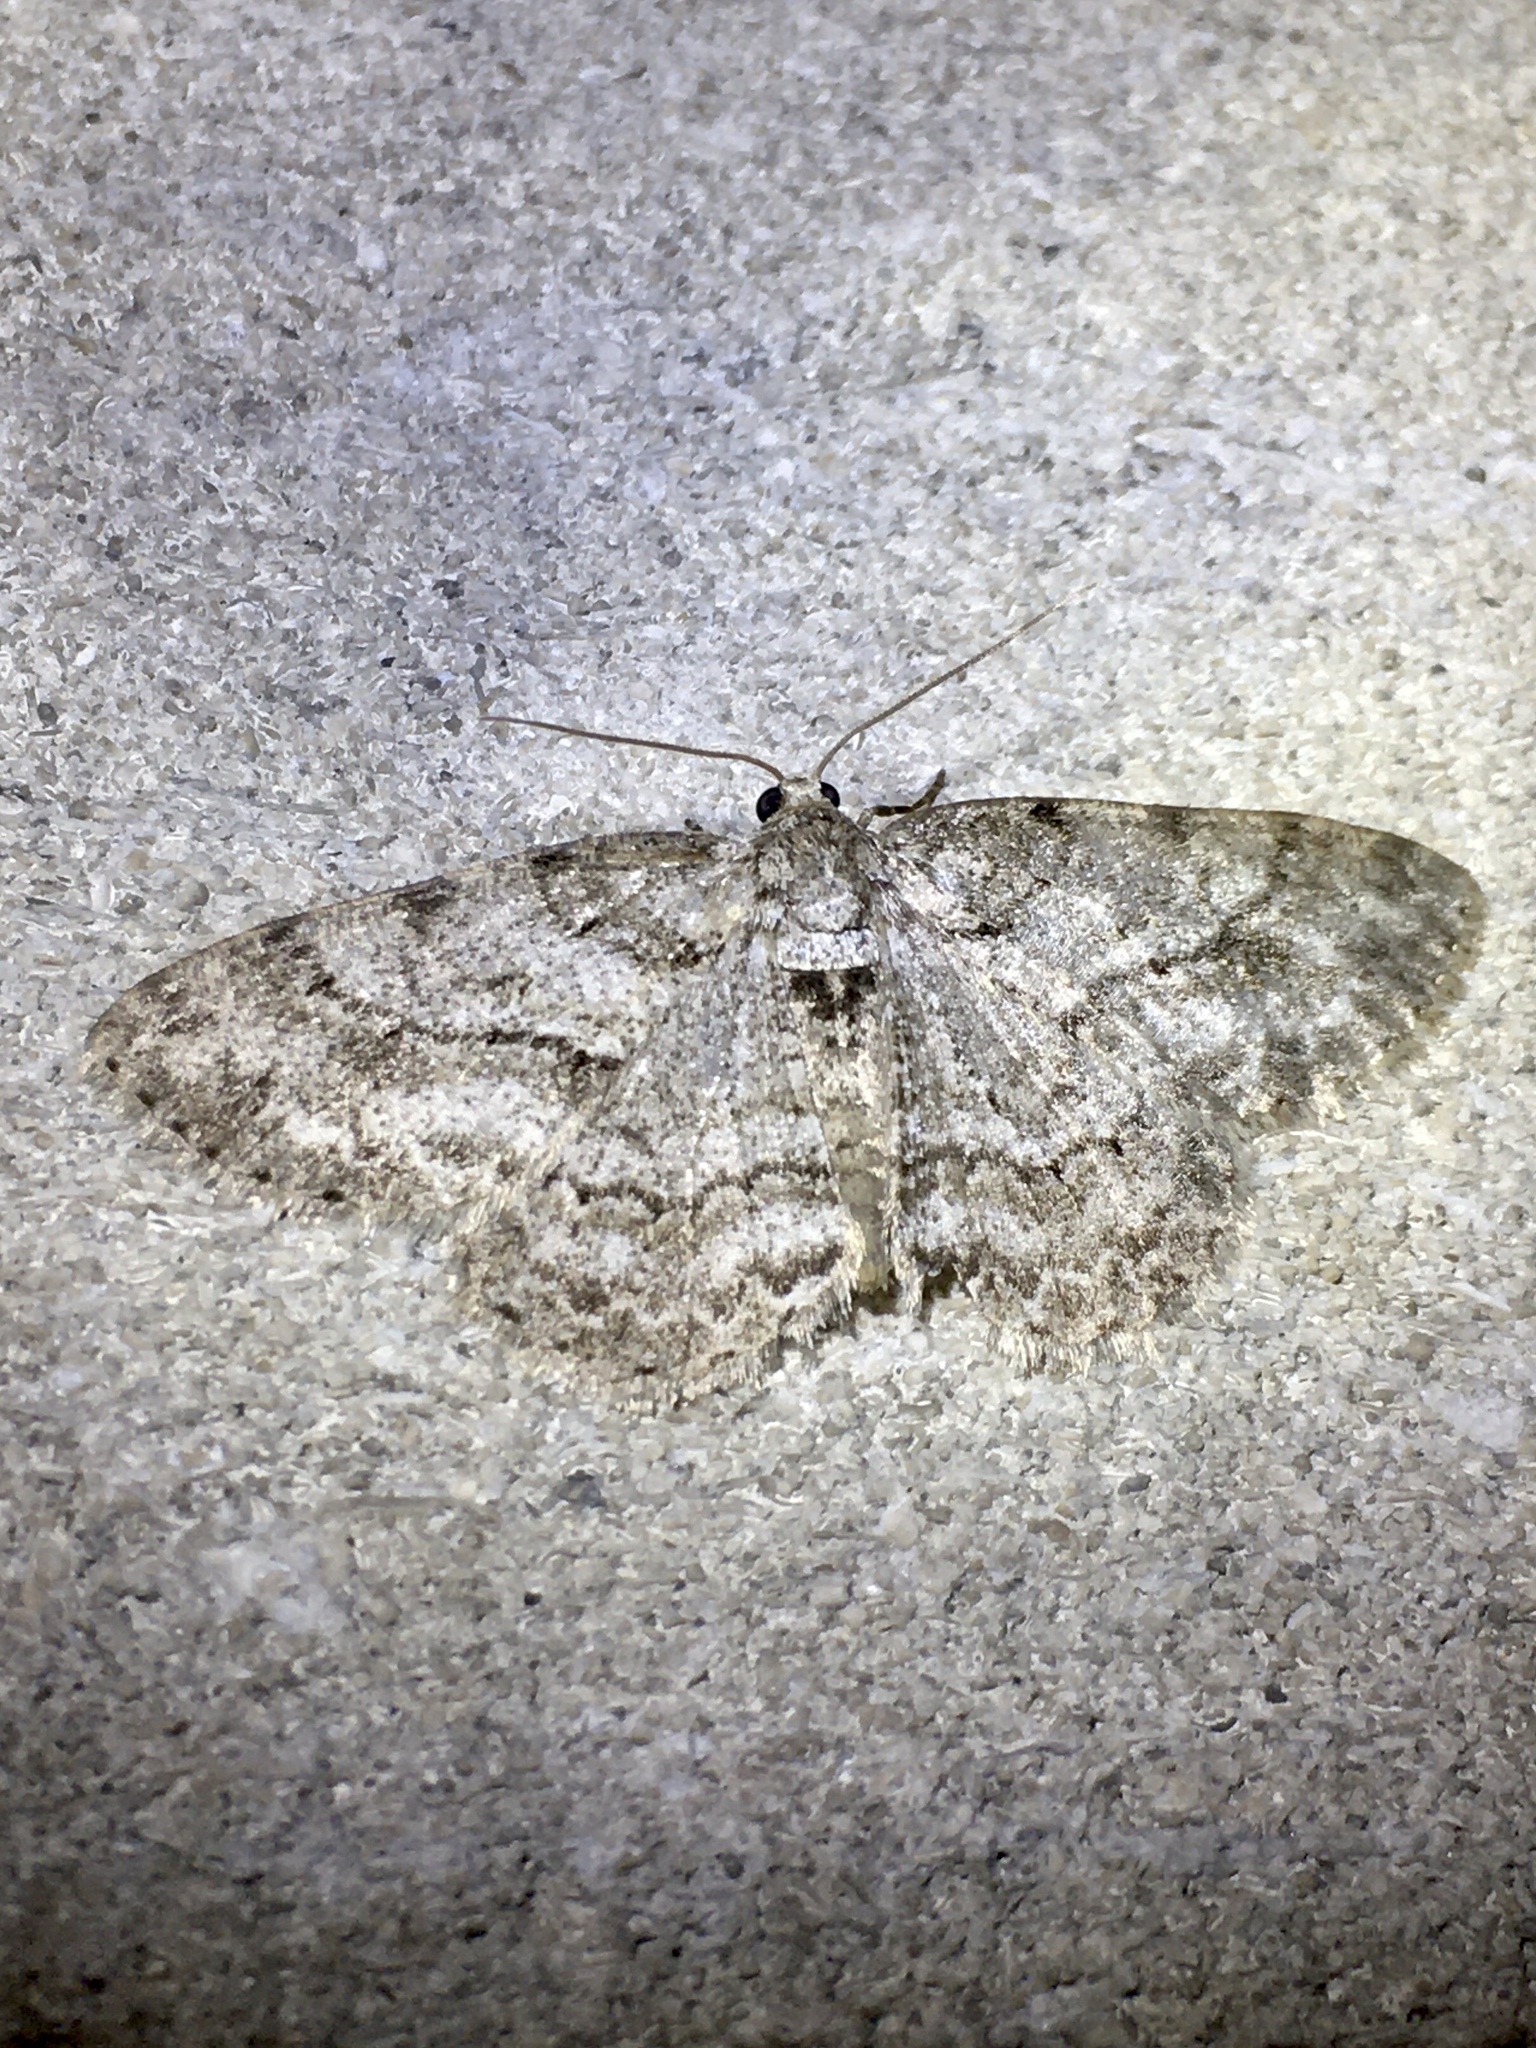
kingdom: Animalia
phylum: Arthropoda
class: Insecta
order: Lepidoptera
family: Geometridae
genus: Ectropis
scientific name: Ectropis crepuscularia
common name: Engrailed
